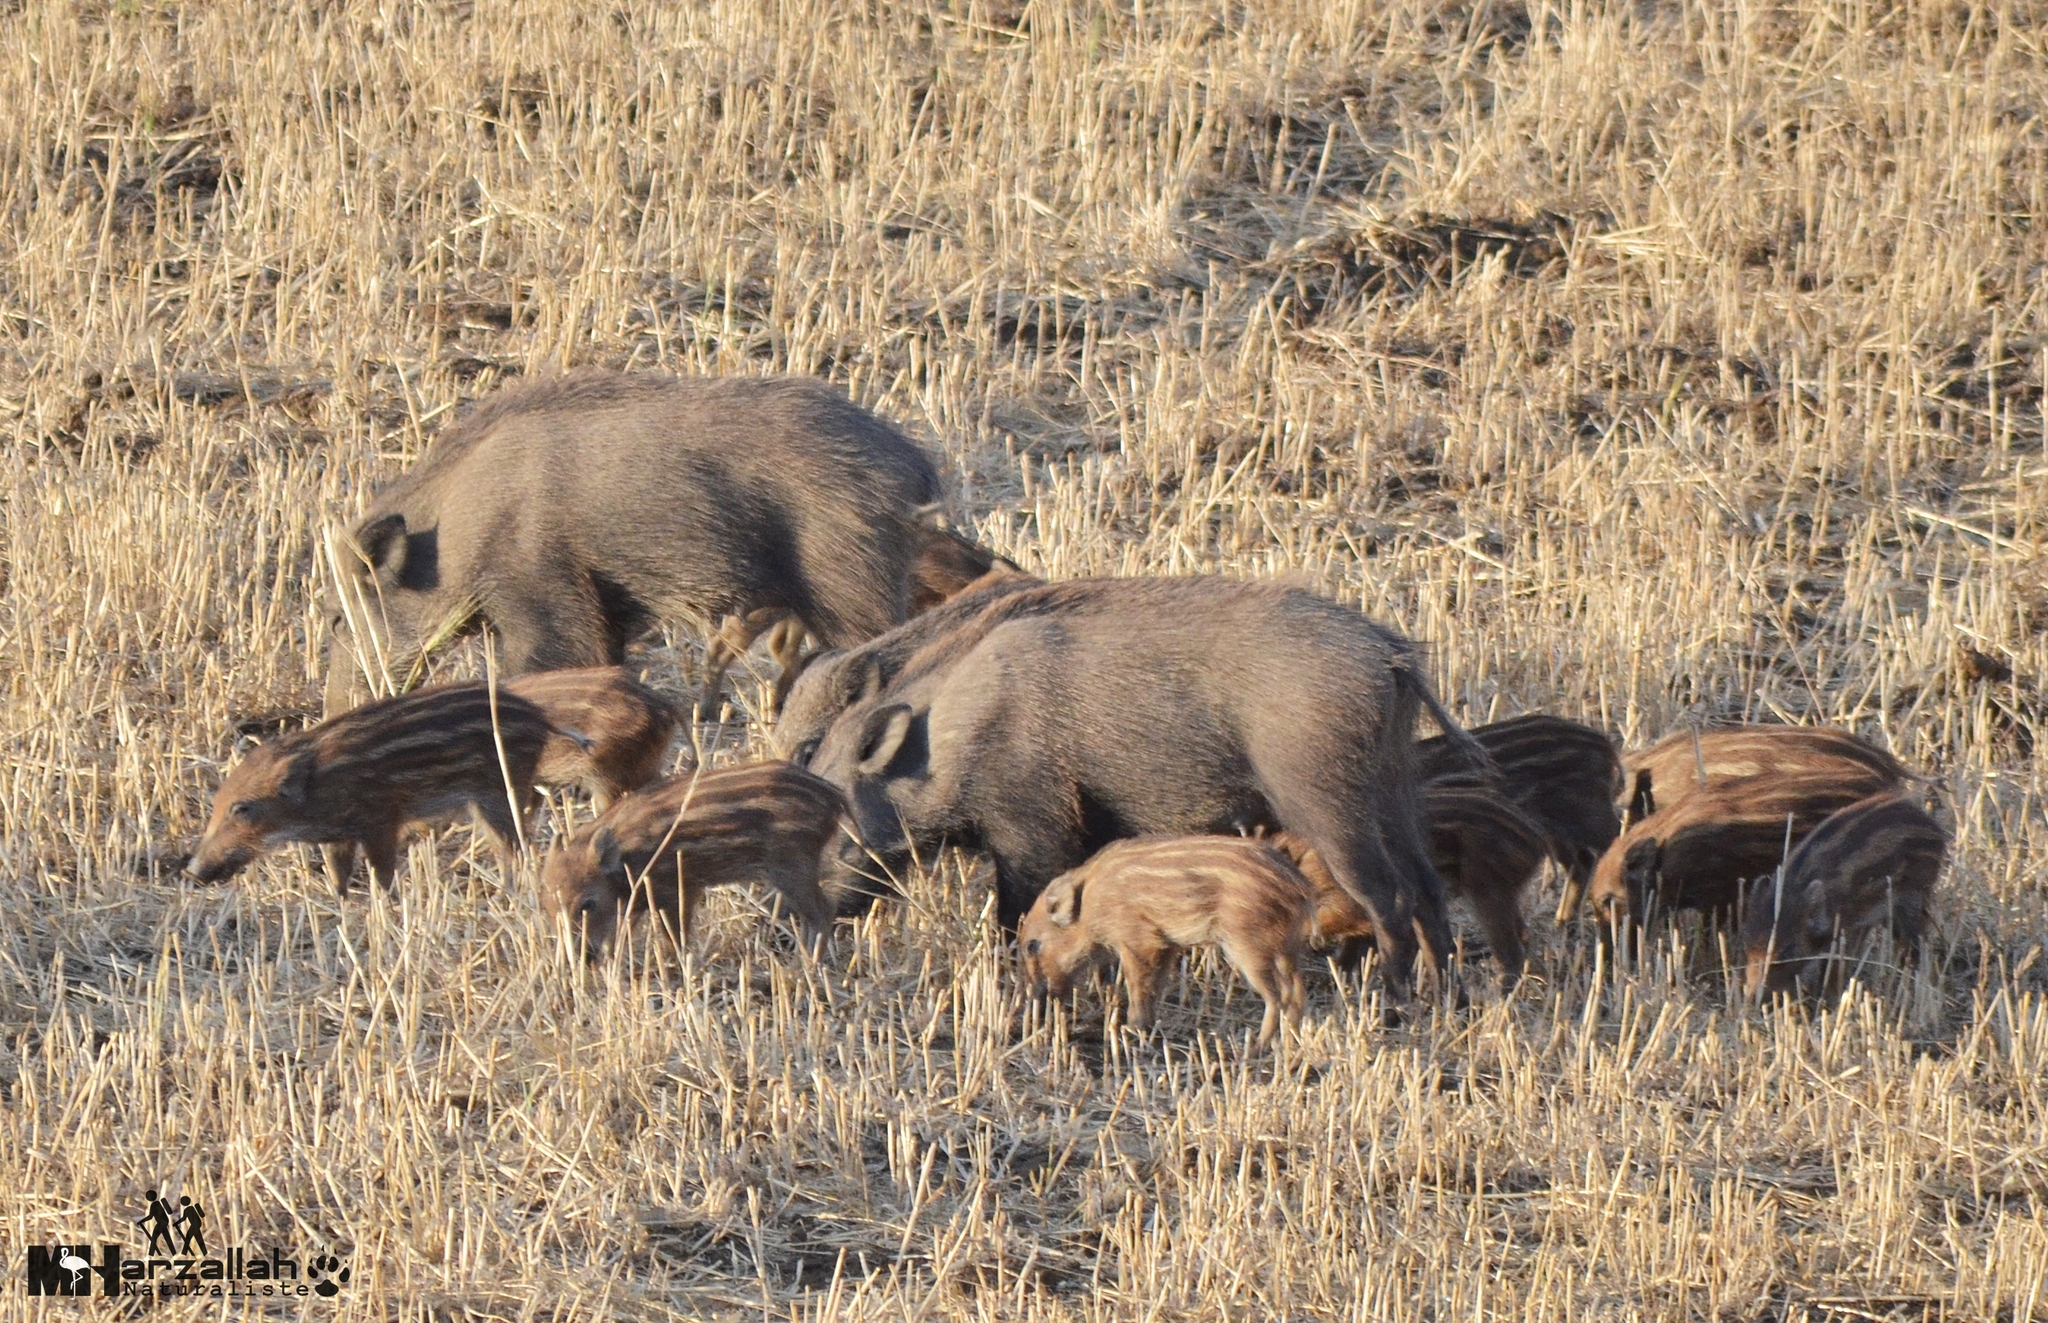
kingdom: Animalia
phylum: Chordata
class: Mammalia
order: Artiodactyla
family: Suidae
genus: Sus
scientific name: Sus scrofa
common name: Wild boar
